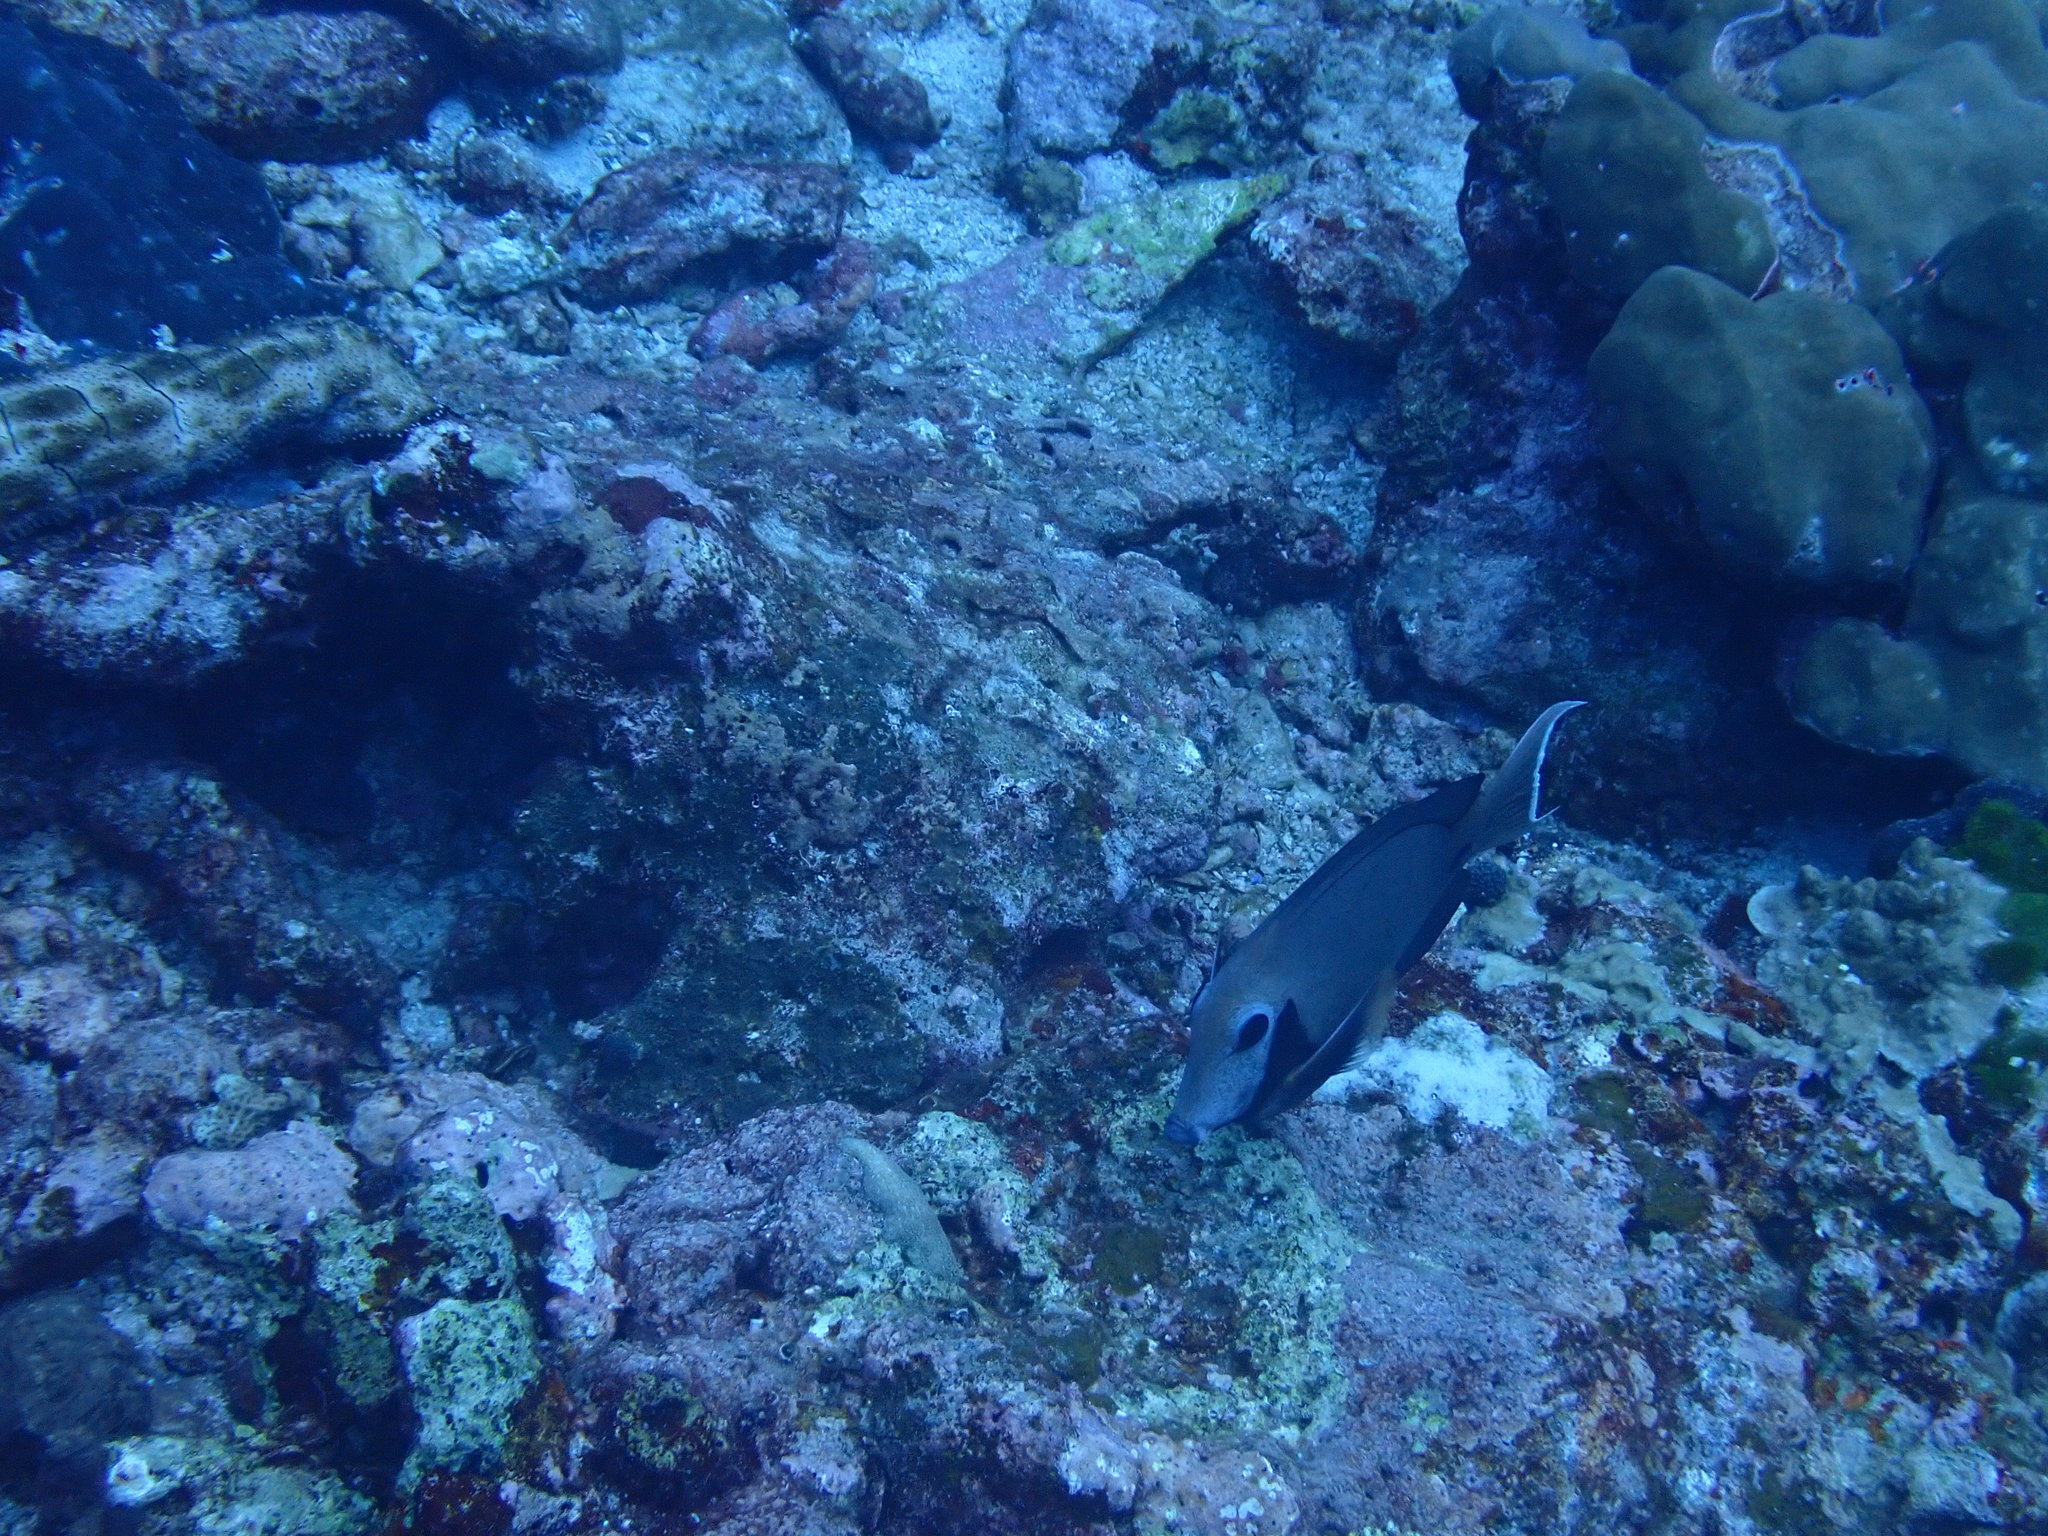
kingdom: Animalia
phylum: Chordata
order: Perciformes
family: Acanthuridae
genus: Acanthurus
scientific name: Acanthurus tristis
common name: Blackcheek surgeonfish
